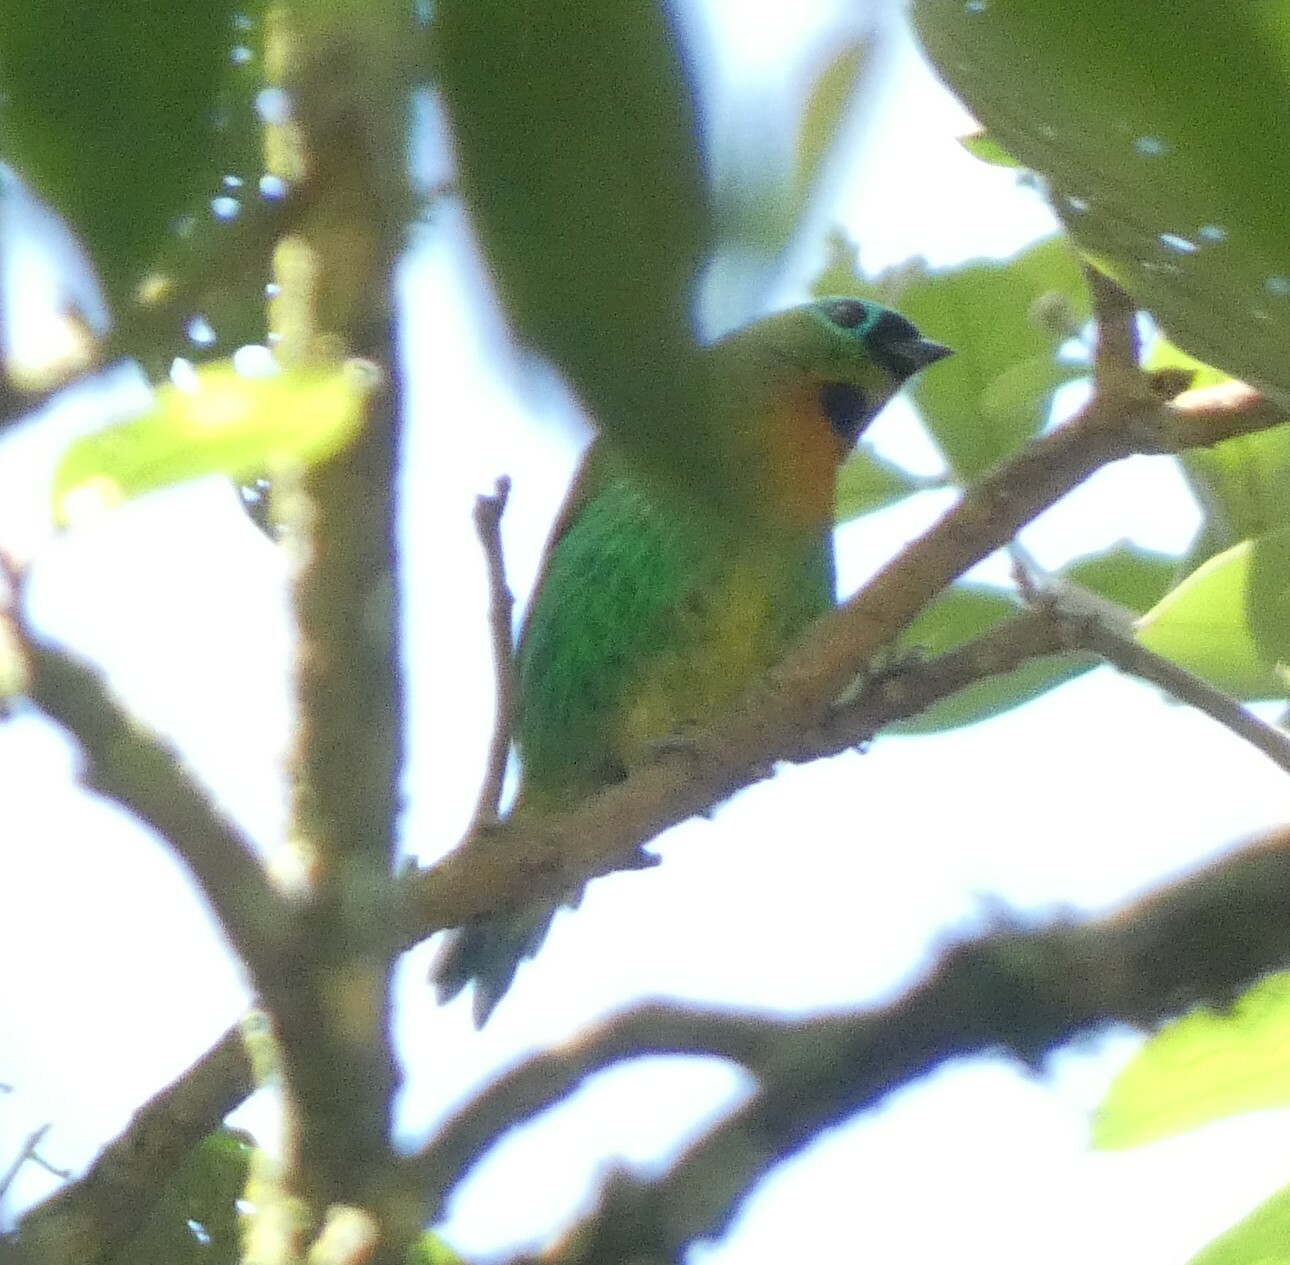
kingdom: Animalia
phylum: Chordata
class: Aves
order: Passeriformes
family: Thraupidae
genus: Tangara
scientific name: Tangara desmaresti
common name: Brassy-breasted tanager
